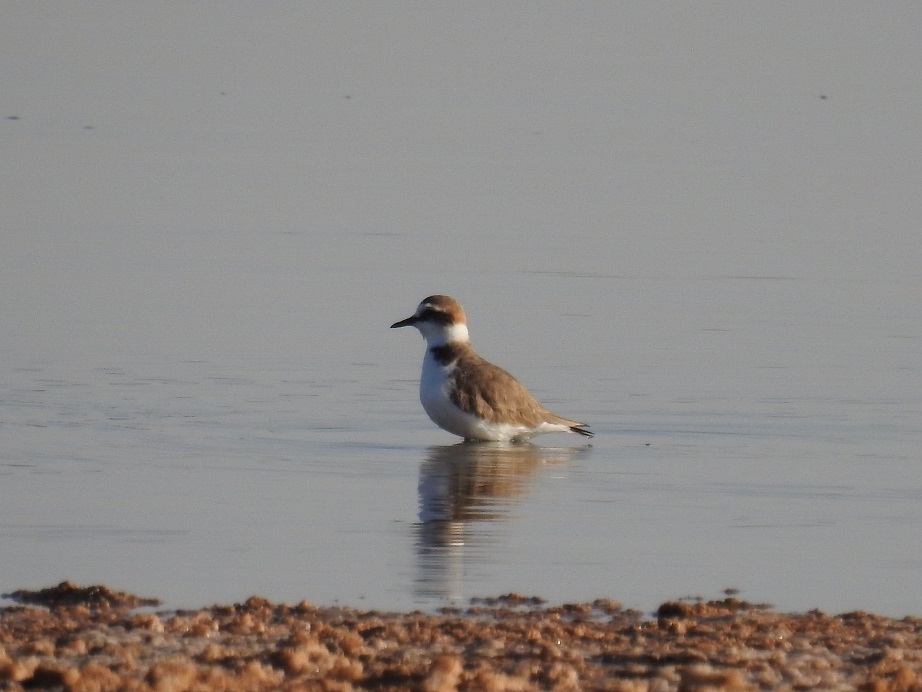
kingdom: Animalia
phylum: Chordata
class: Aves
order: Charadriiformes
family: Charadriidae
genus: Charadrius
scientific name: Charadrius alexandrinus
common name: Kentish plover
